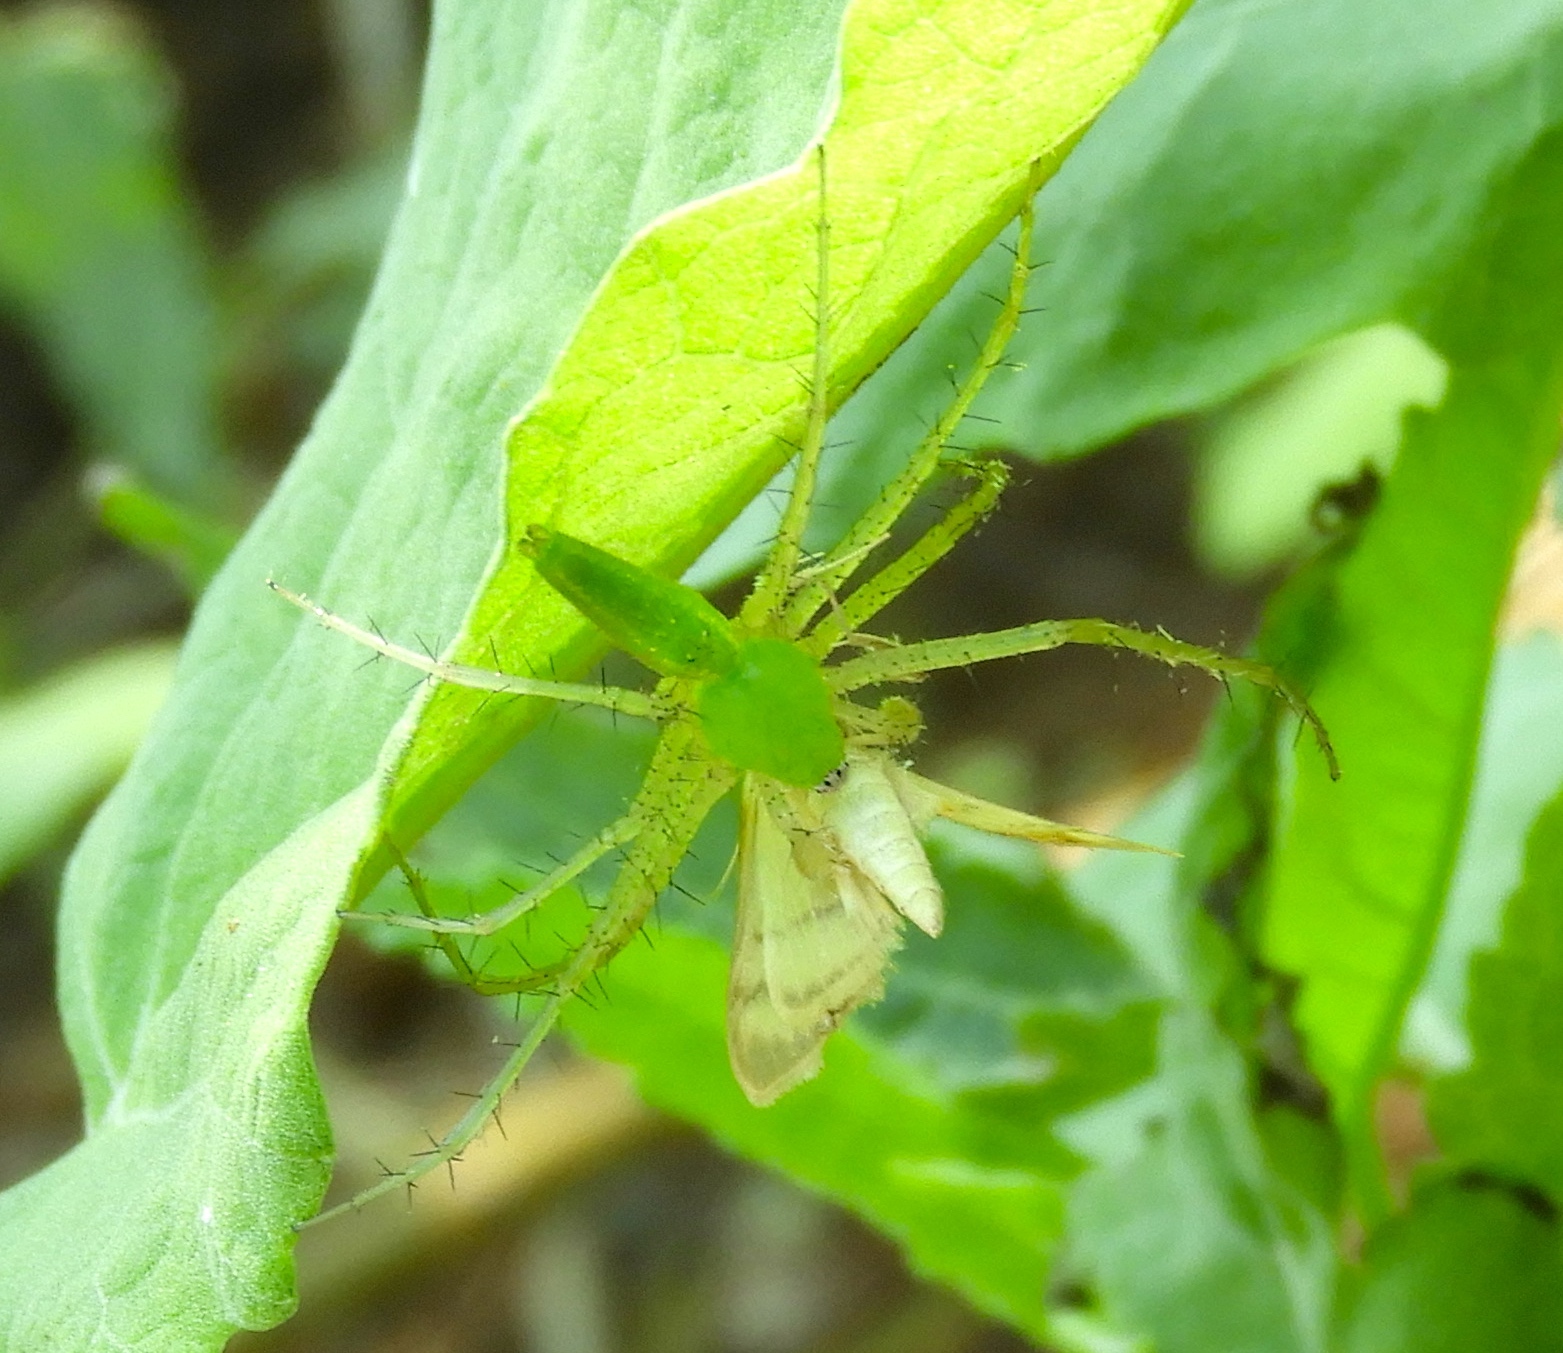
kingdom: Animalia
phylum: Arthropoda
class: Arachnida
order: Araneae
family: Oxyopidae
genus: Peucetia
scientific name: Peucetia
